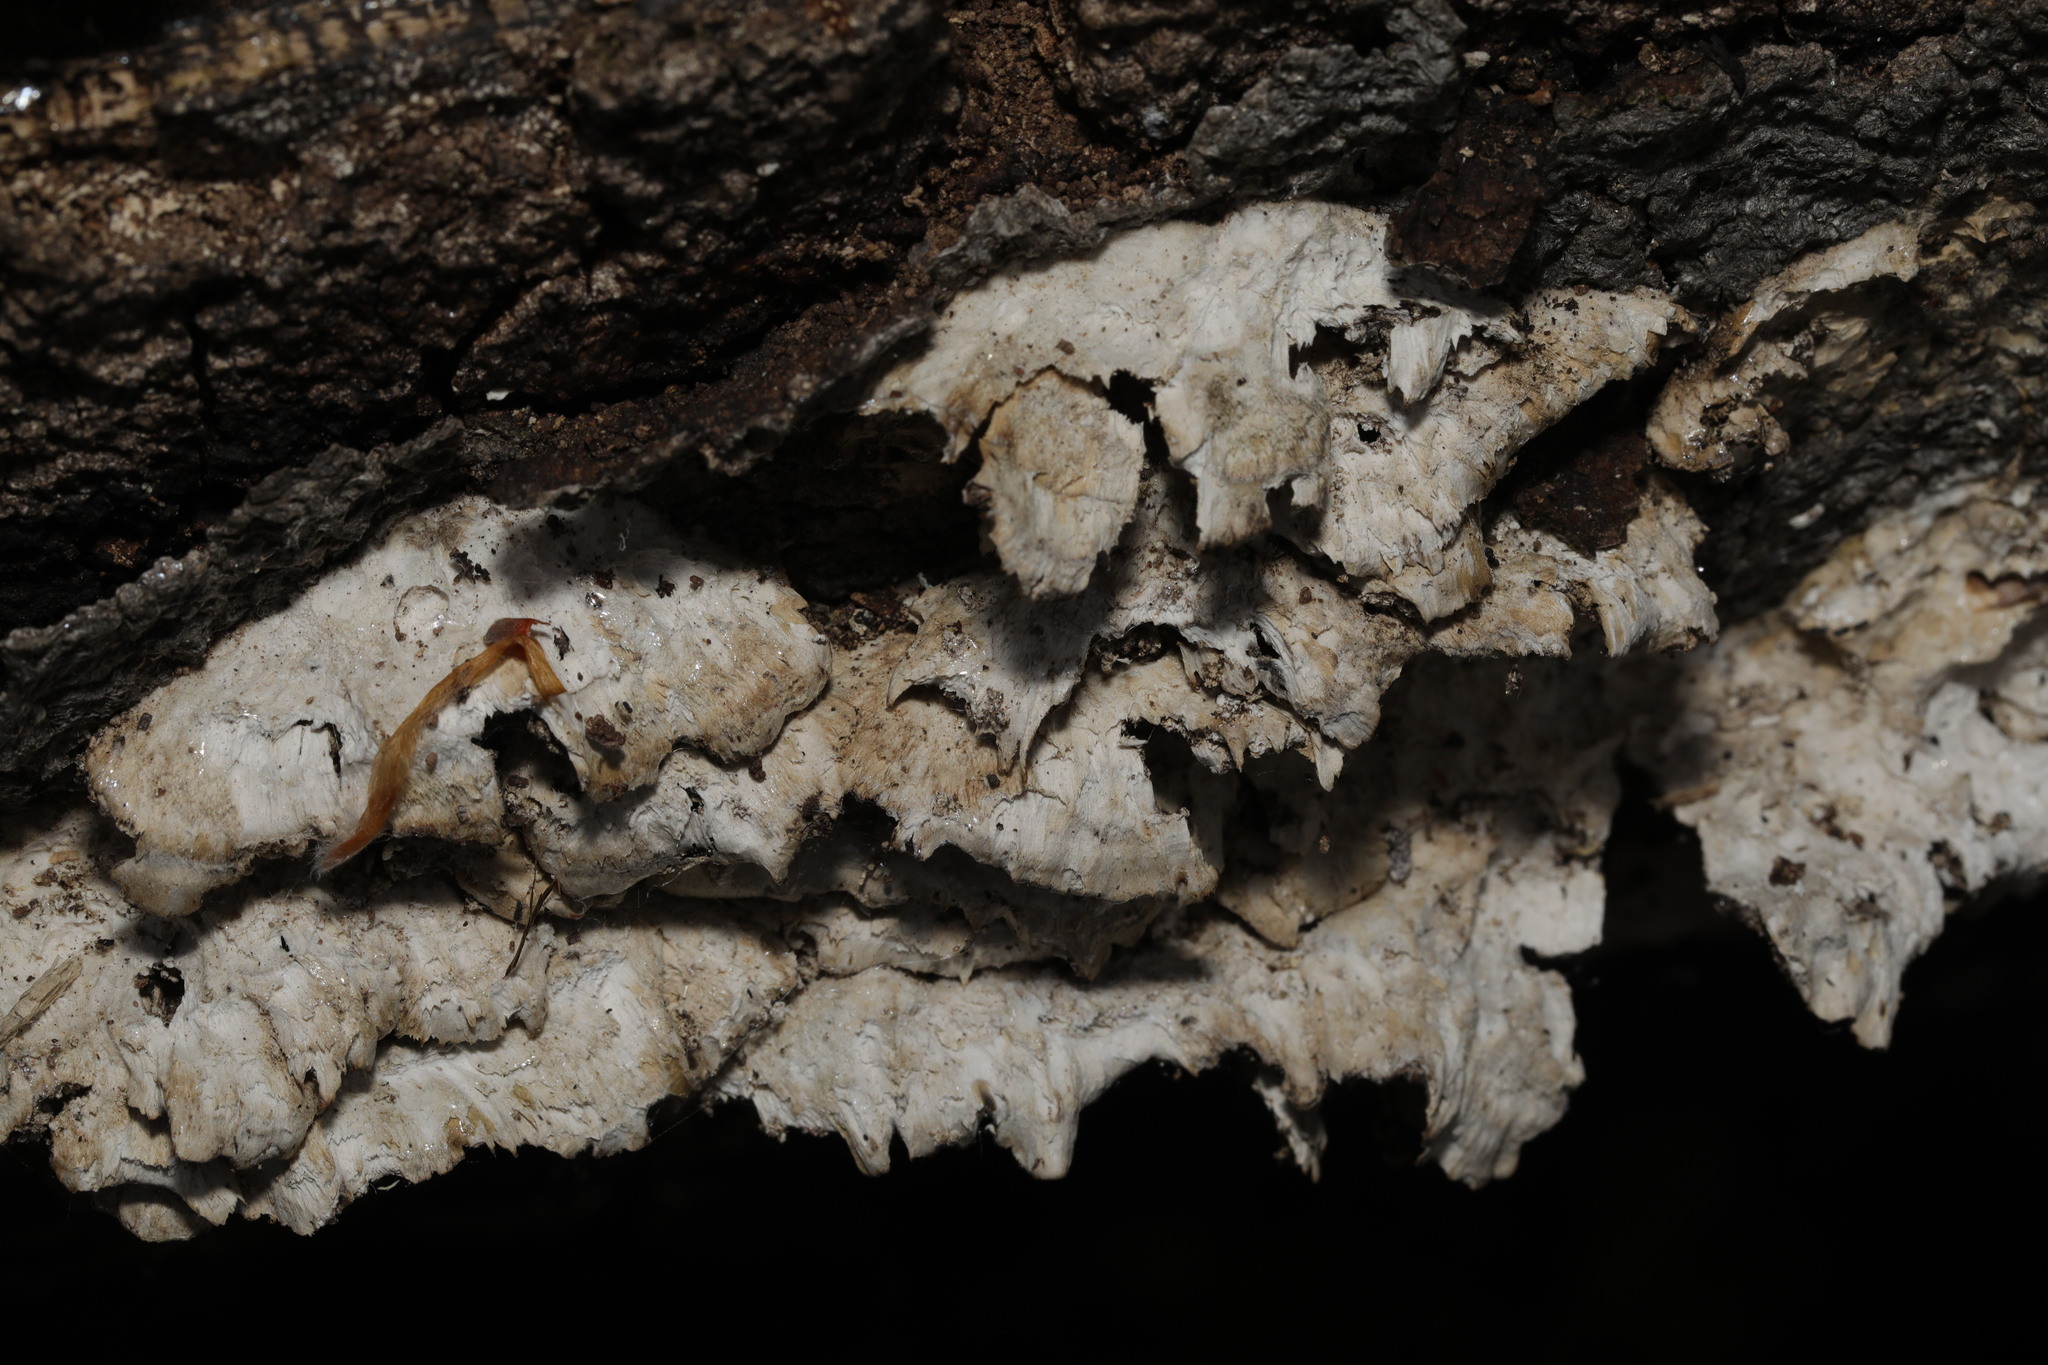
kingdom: Fungi
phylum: Basidiomycota
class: Agaricomycetes
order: Agaricales
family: Schizophyllaceae
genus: Schizophyllum
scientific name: Schizophyllum commune
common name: Common porecrust
